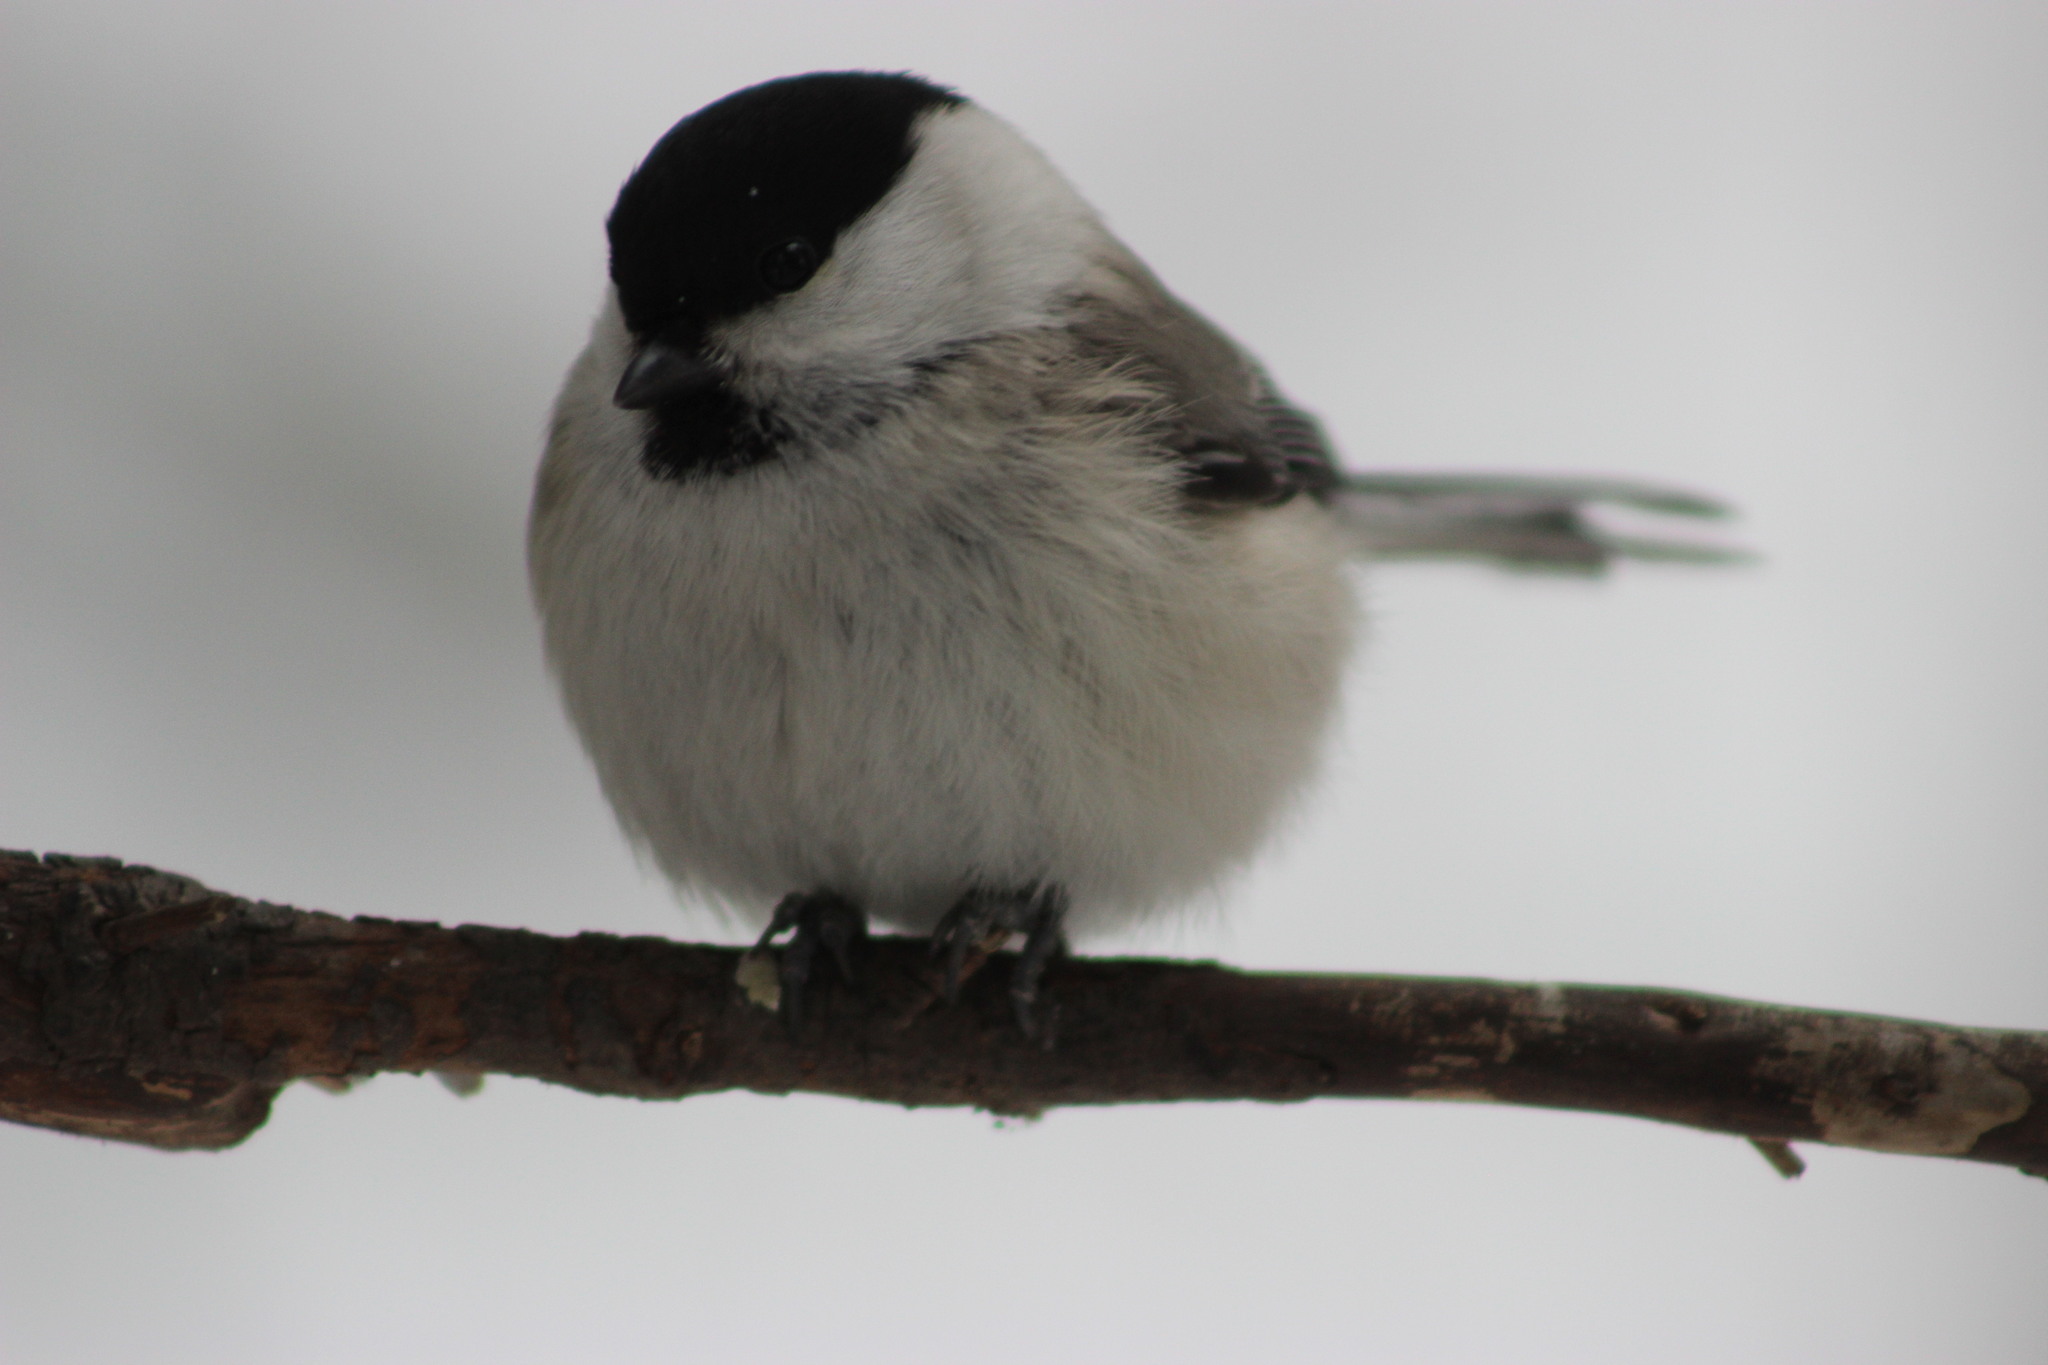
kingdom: Animalia
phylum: Chordata
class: Aves
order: Passeriformes
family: Paridae
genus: Poecile
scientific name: Poecile montanus
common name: Willow tit
